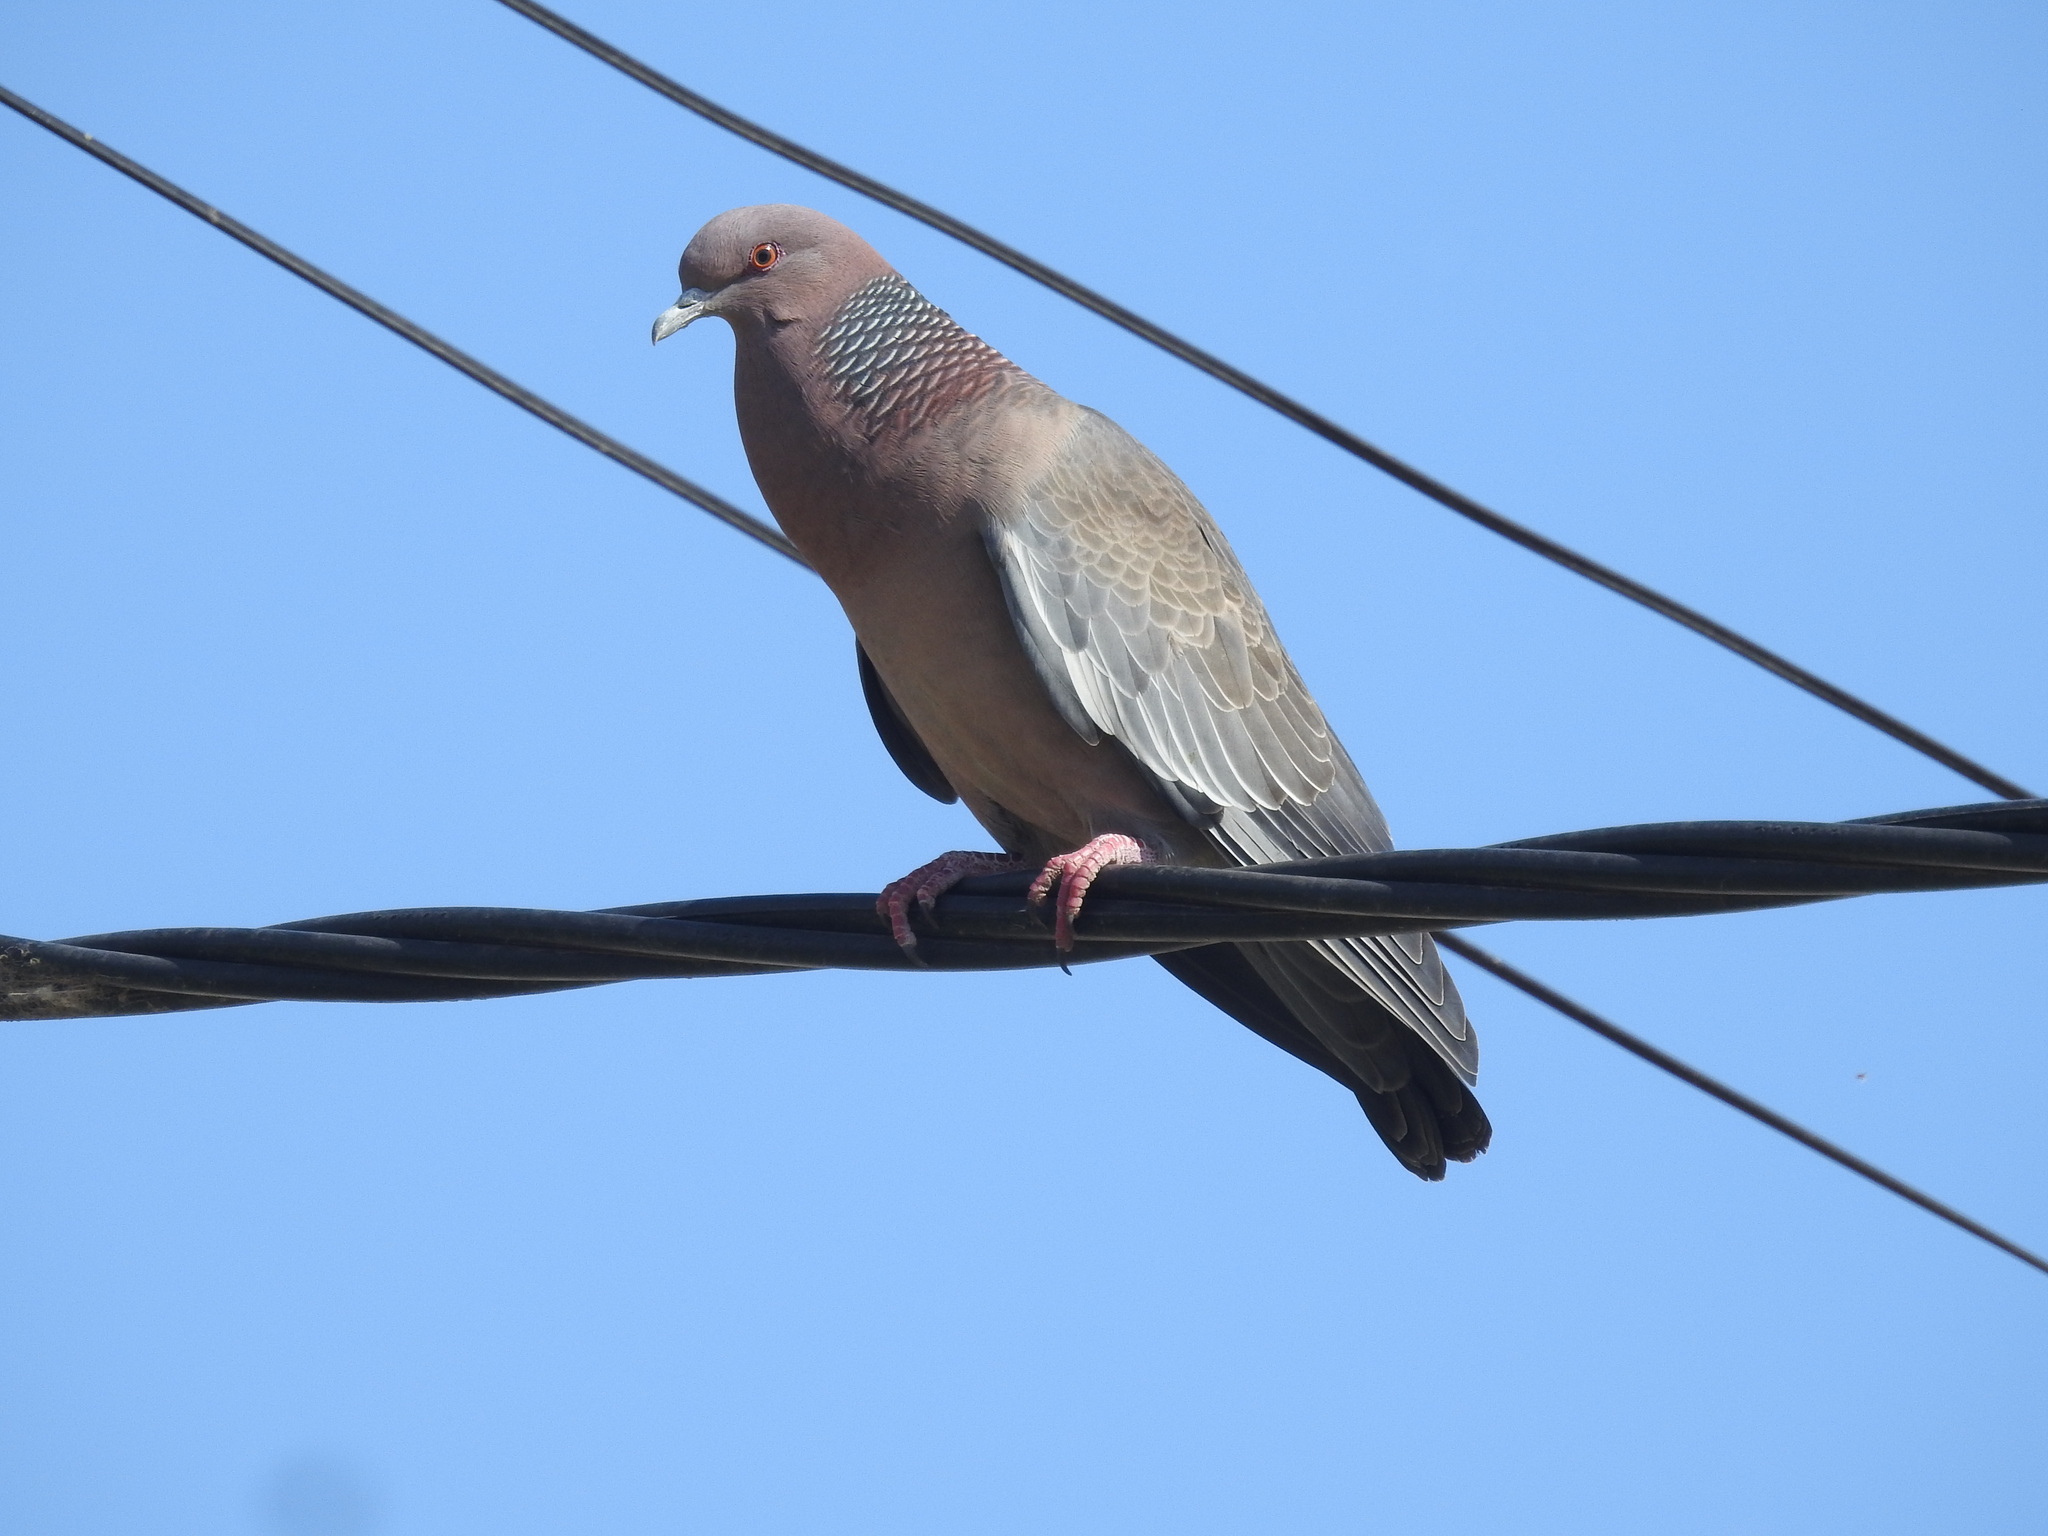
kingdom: Animalia
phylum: Chordata
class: Aves
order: Columbiformes
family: Columbidae
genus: Patagioenas
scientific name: Patagioenas picazuro
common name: Picazuro pigeon
